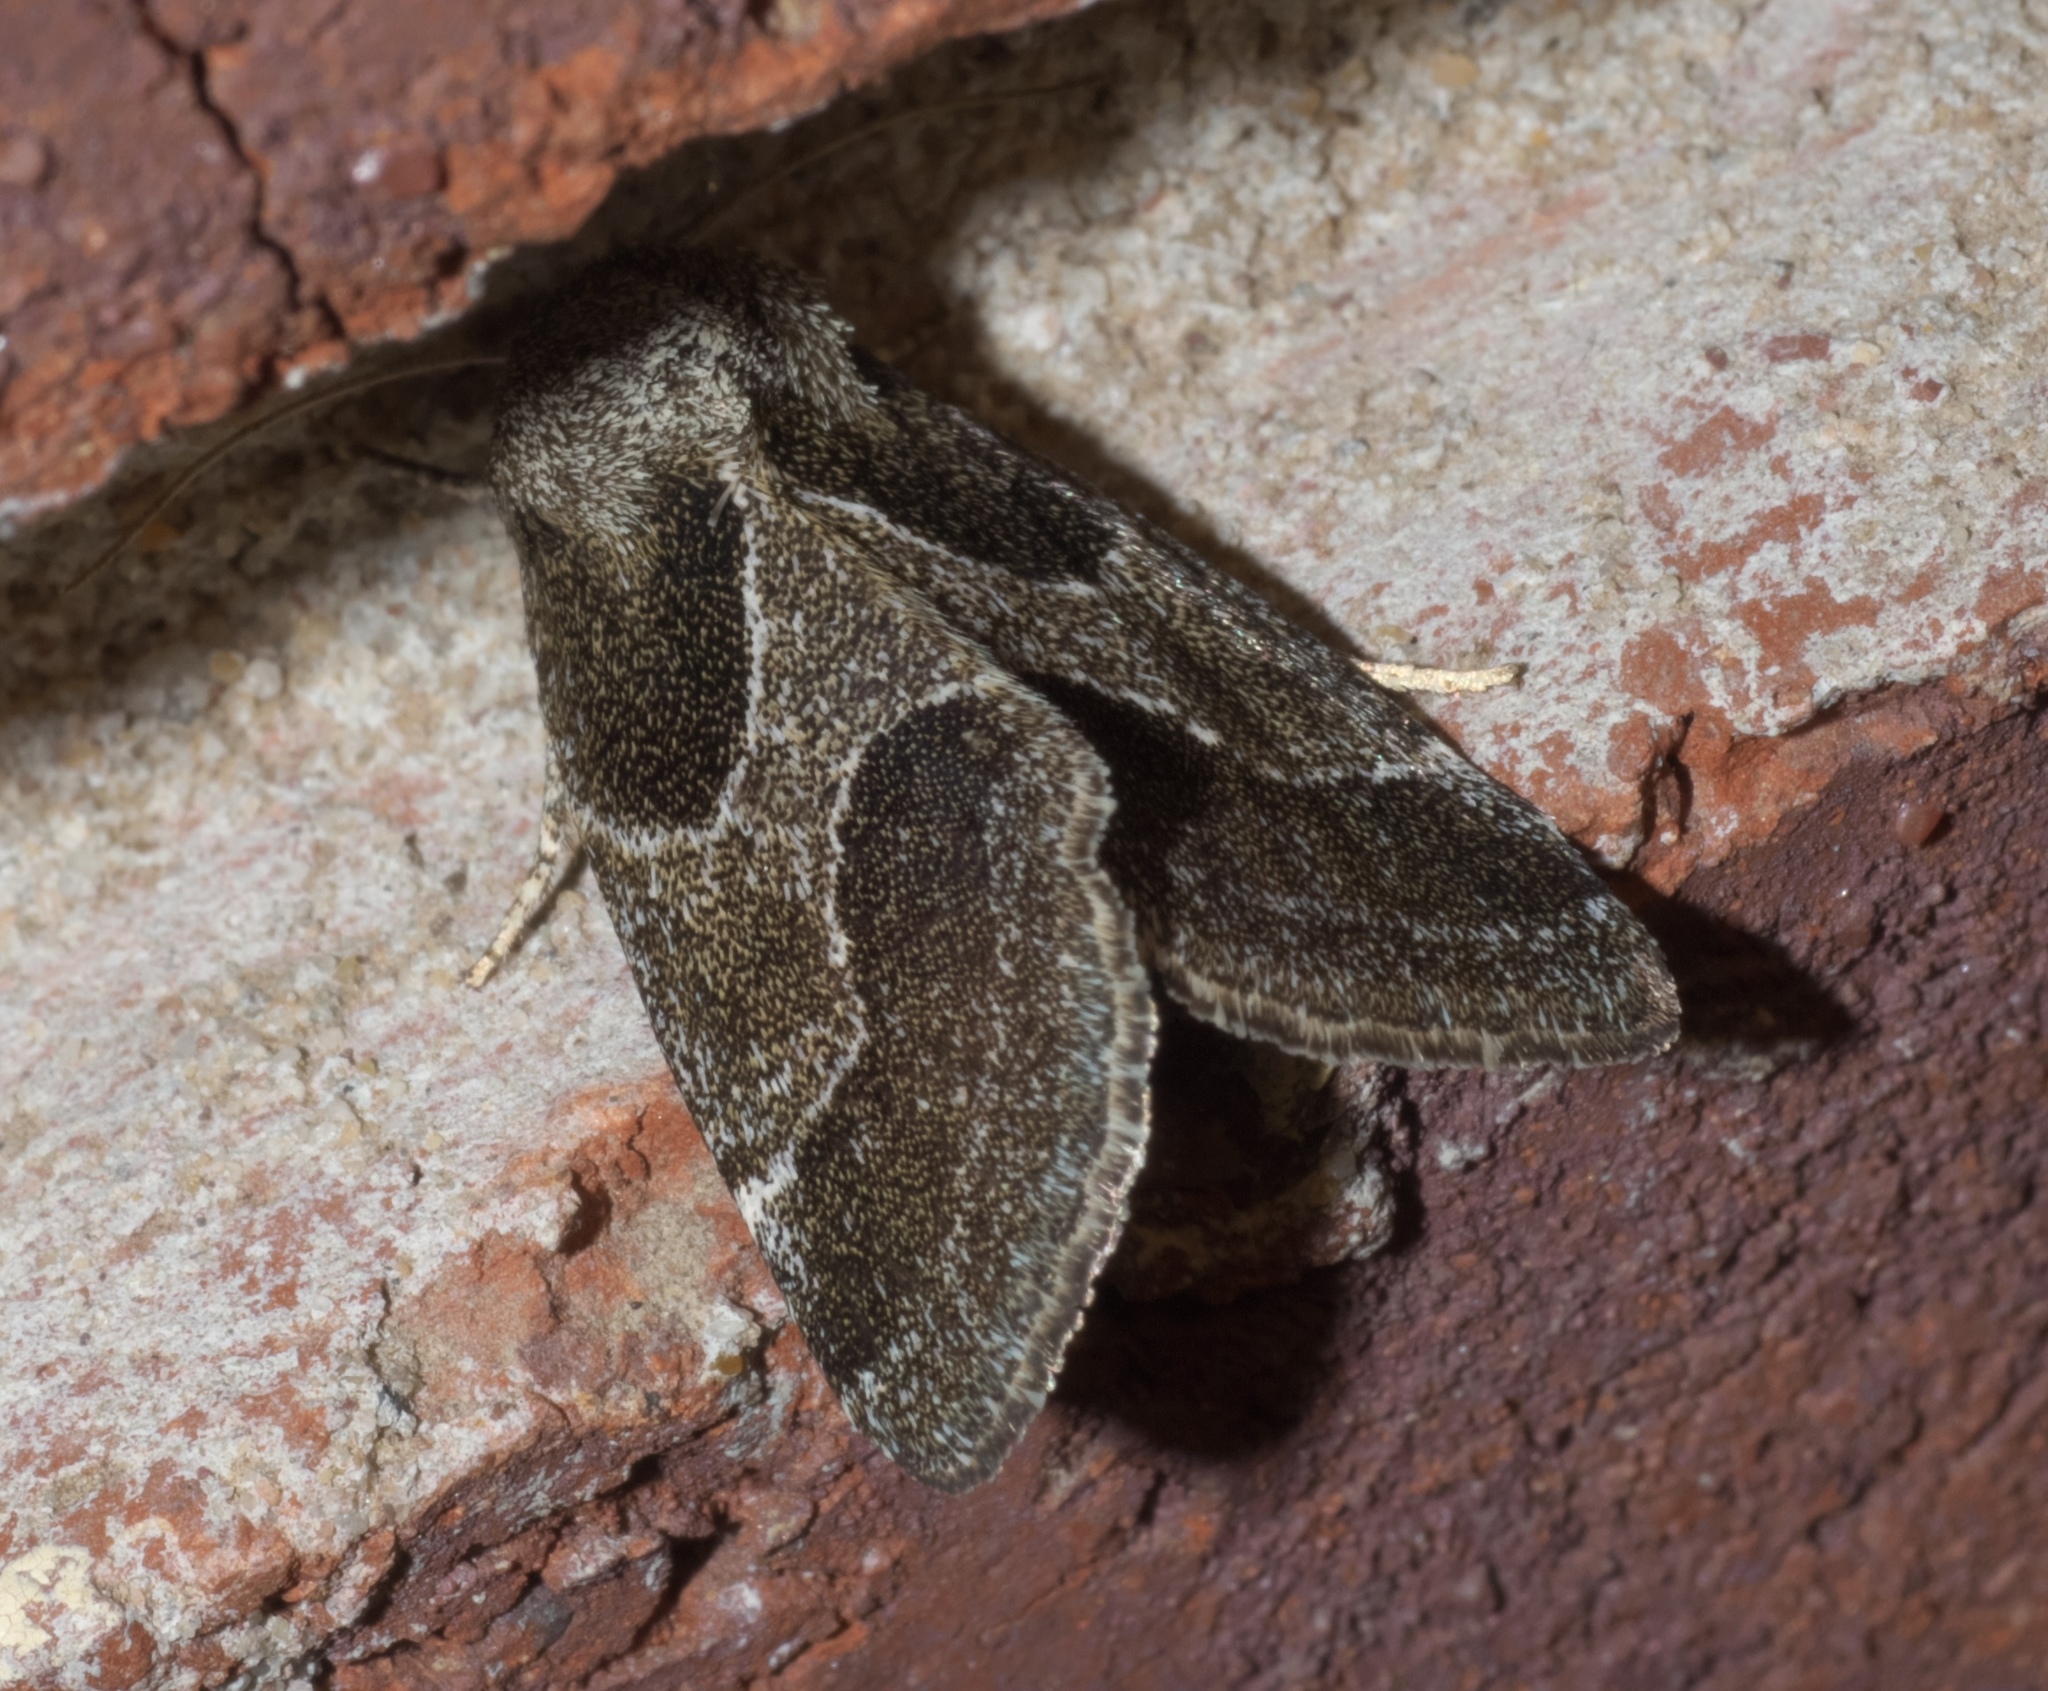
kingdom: Animalia
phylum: Arthropoda
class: Insecta
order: Lepidoptera
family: Noctuidae
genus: Schinia
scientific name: Schinia rivulosa
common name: Scarce meal-moth
